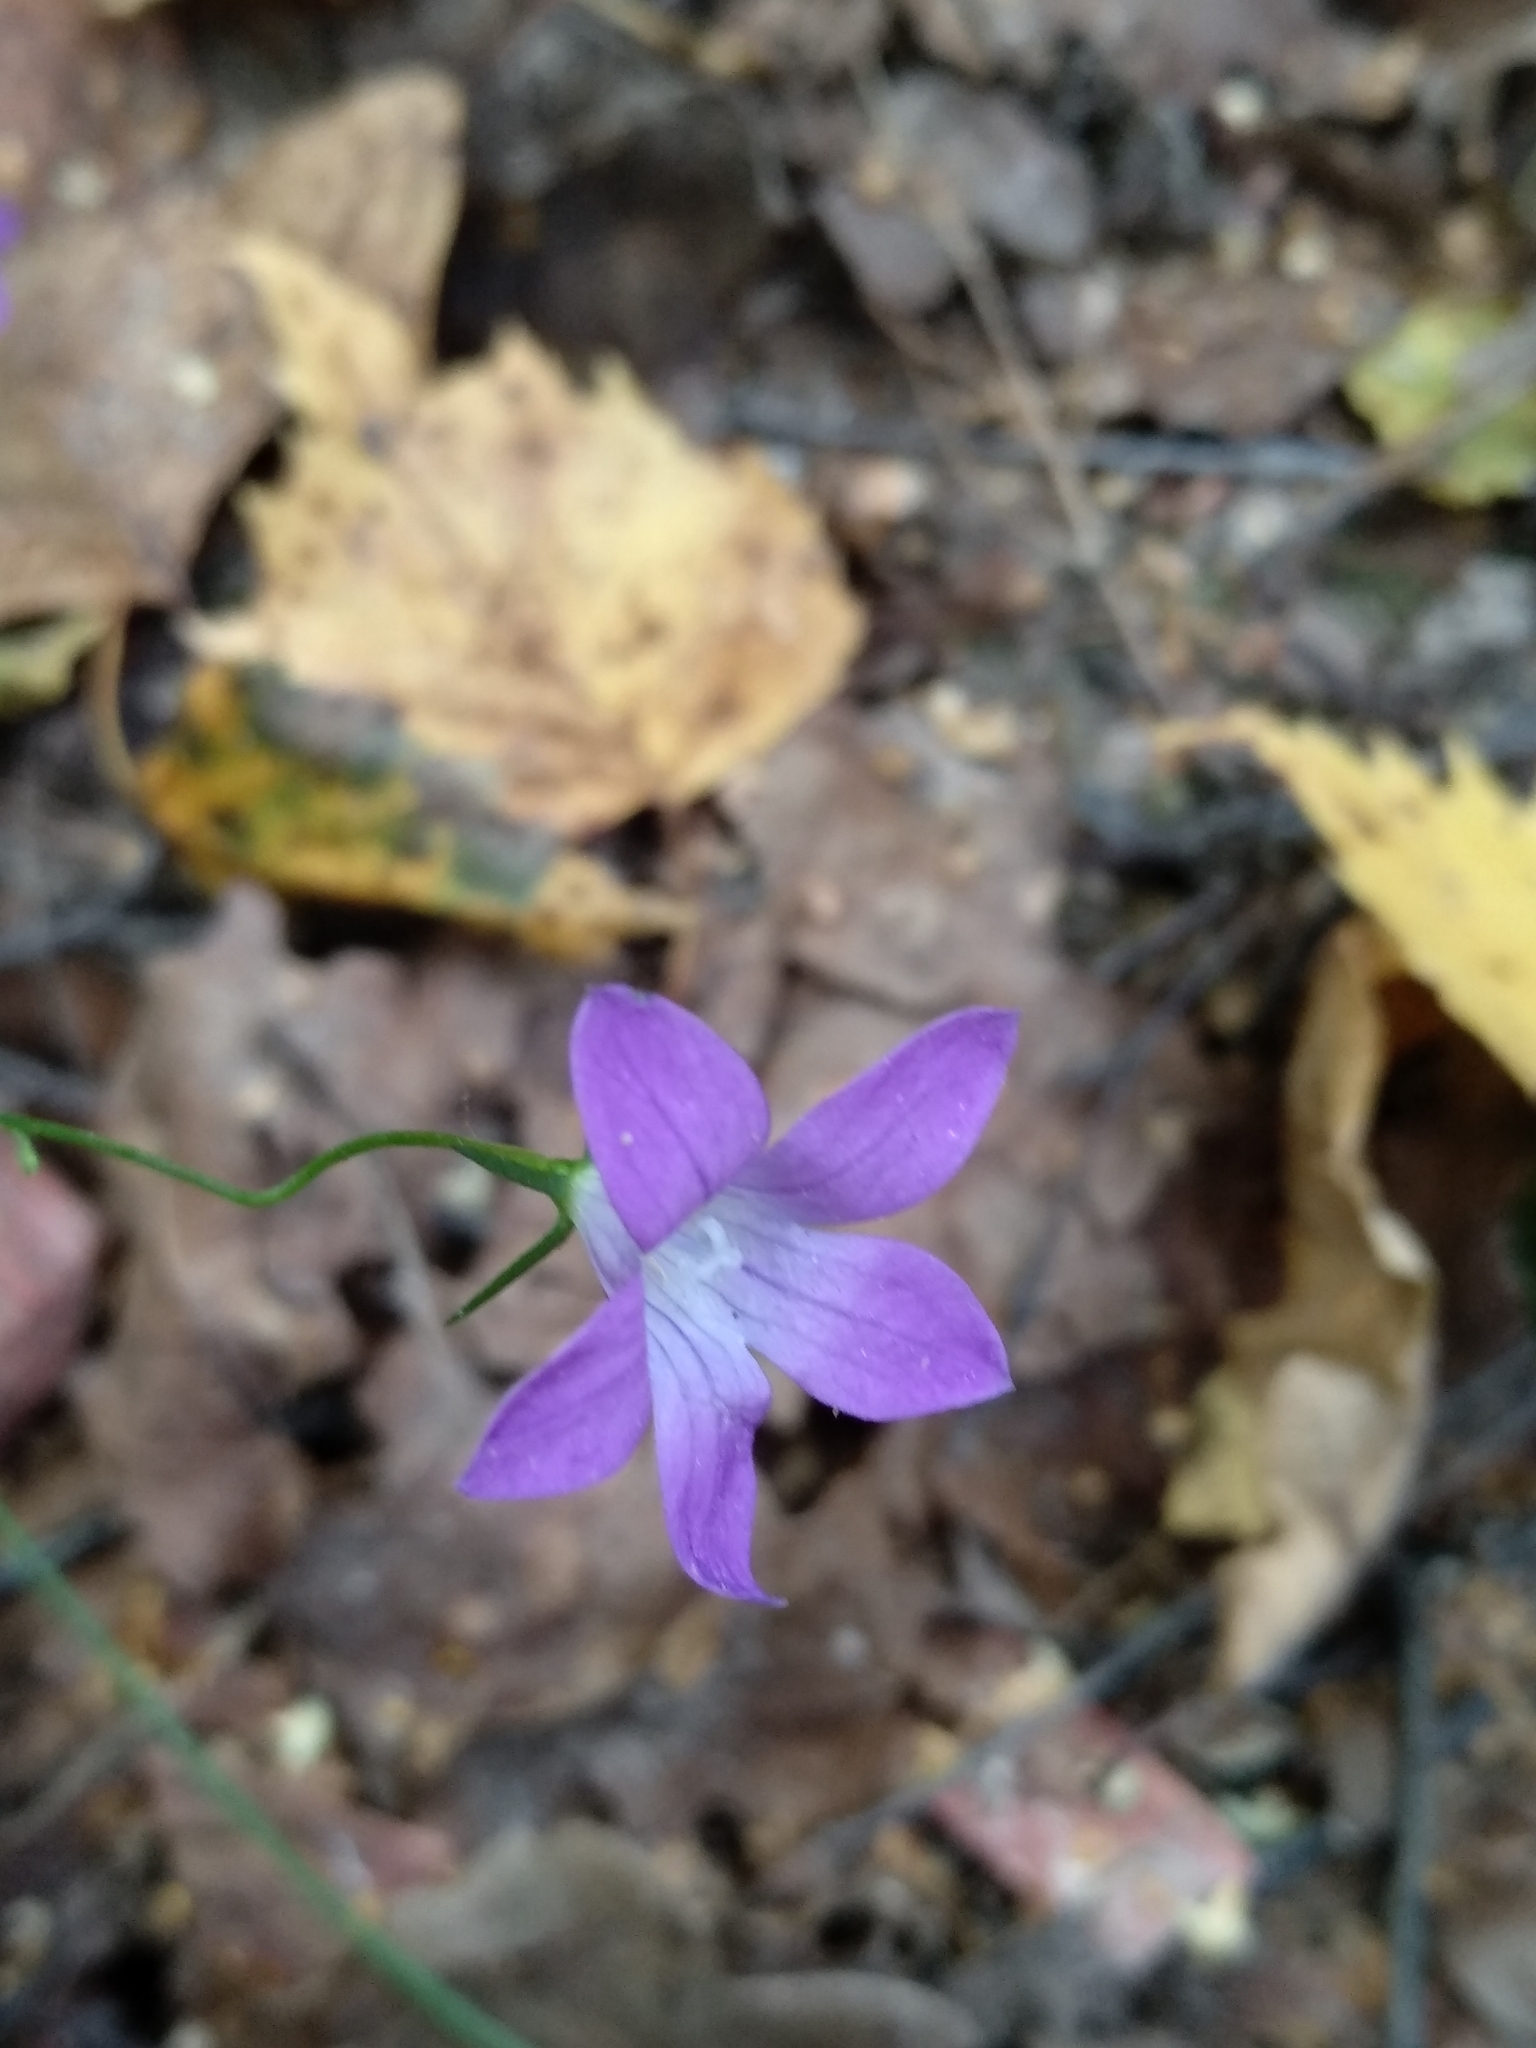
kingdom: Plantae
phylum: Tracheophyta
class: Magnoliopsida
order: Asterales
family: Campanulaceae
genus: Campanula
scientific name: Campanula patula
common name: Spreading bellflower
